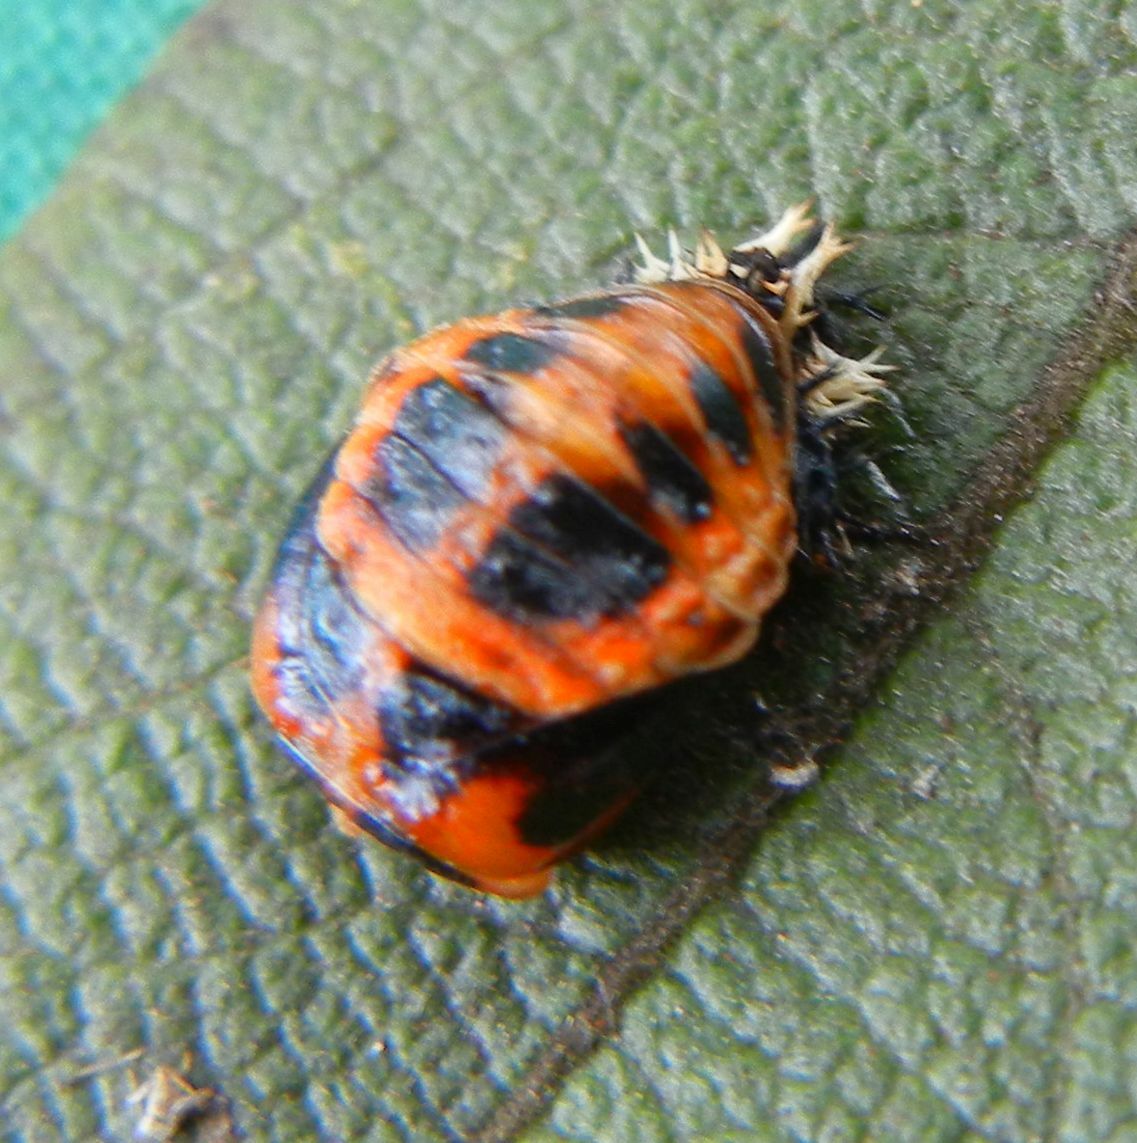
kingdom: Animalia
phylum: Arthropoda
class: Insecta
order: Coleoptera
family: Coccinellidae
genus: Harmonia
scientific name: Harmonia axyridis
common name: Harlequin ladybird
